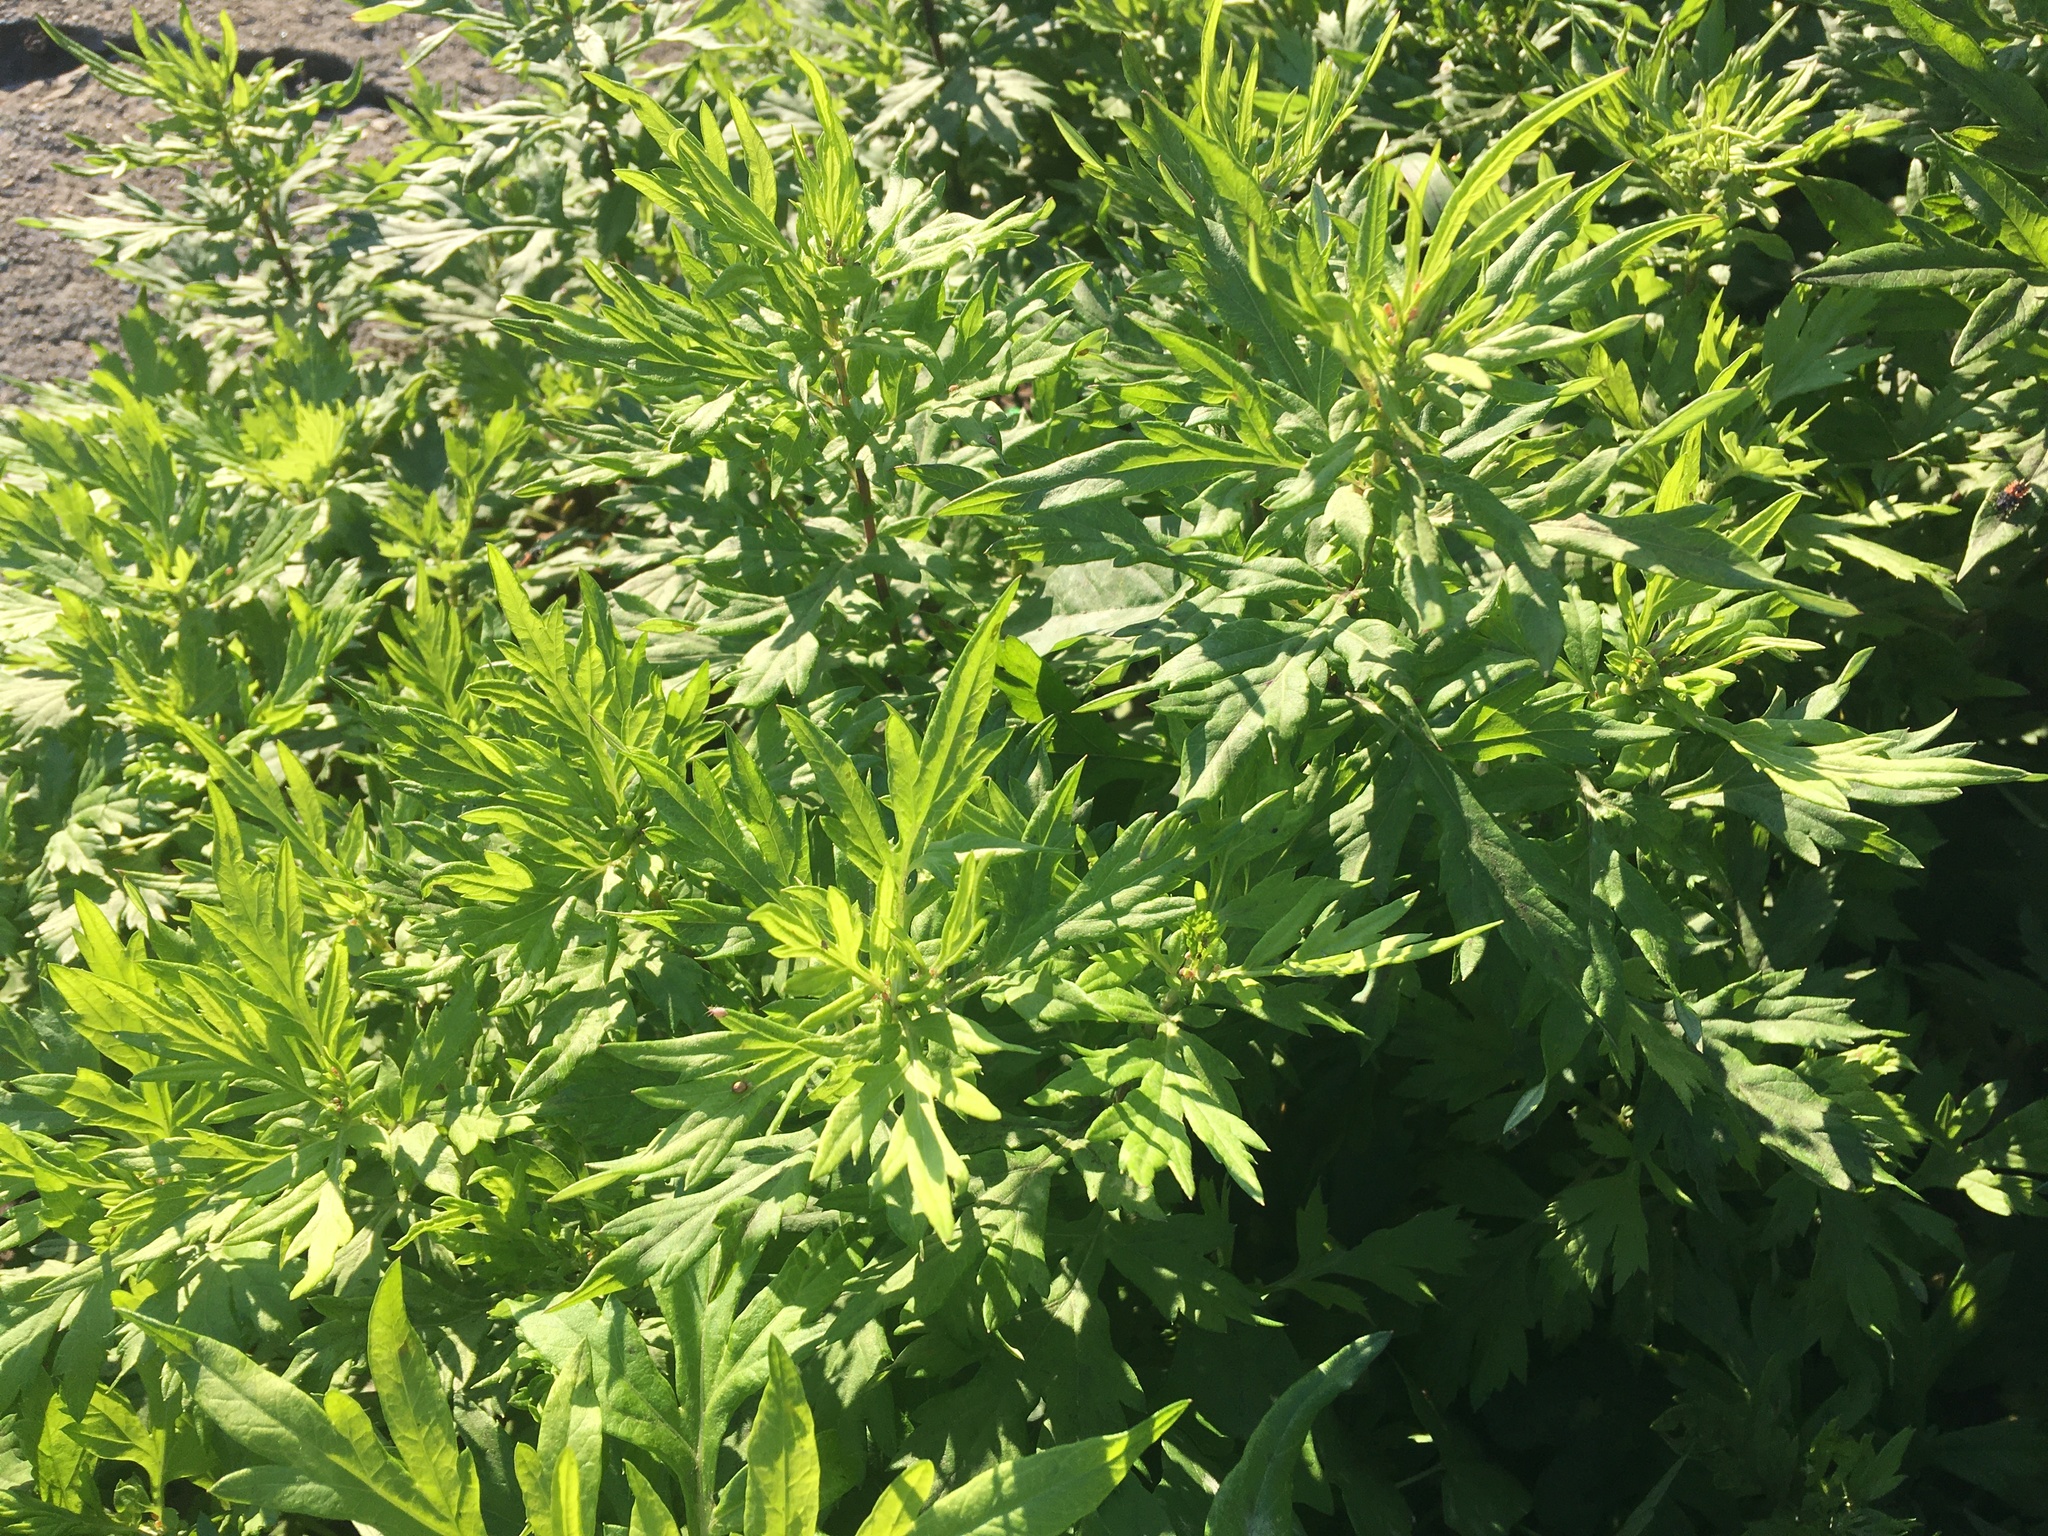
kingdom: Plantae
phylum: Tracheophyta
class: Magnoliopsida
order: Asterales
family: Asteraceae
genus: Artemisia
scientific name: Artemisia vulgaris
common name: Mugwort
